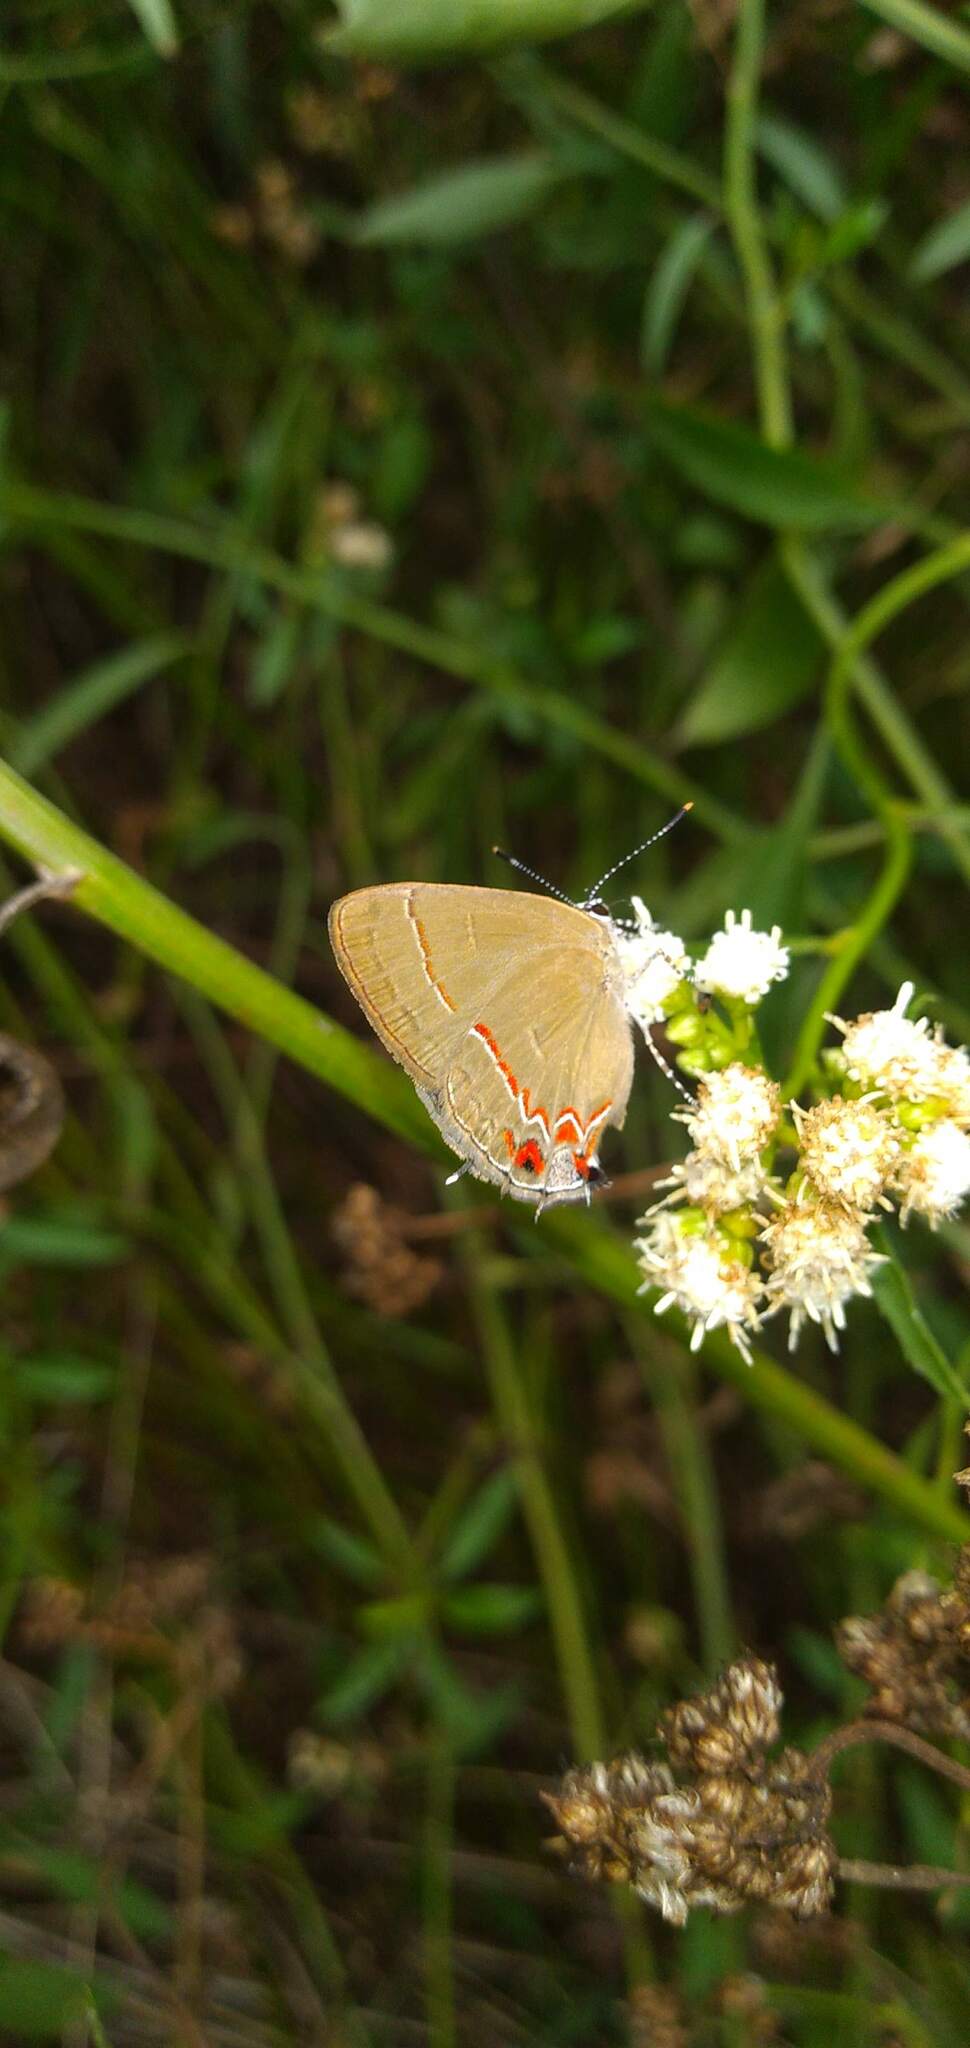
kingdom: Animalia
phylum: Arthropoda
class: Insecta
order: Lepidoptera
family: Lycaenidae
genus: Calycopis
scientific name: Calycopis caulonia
